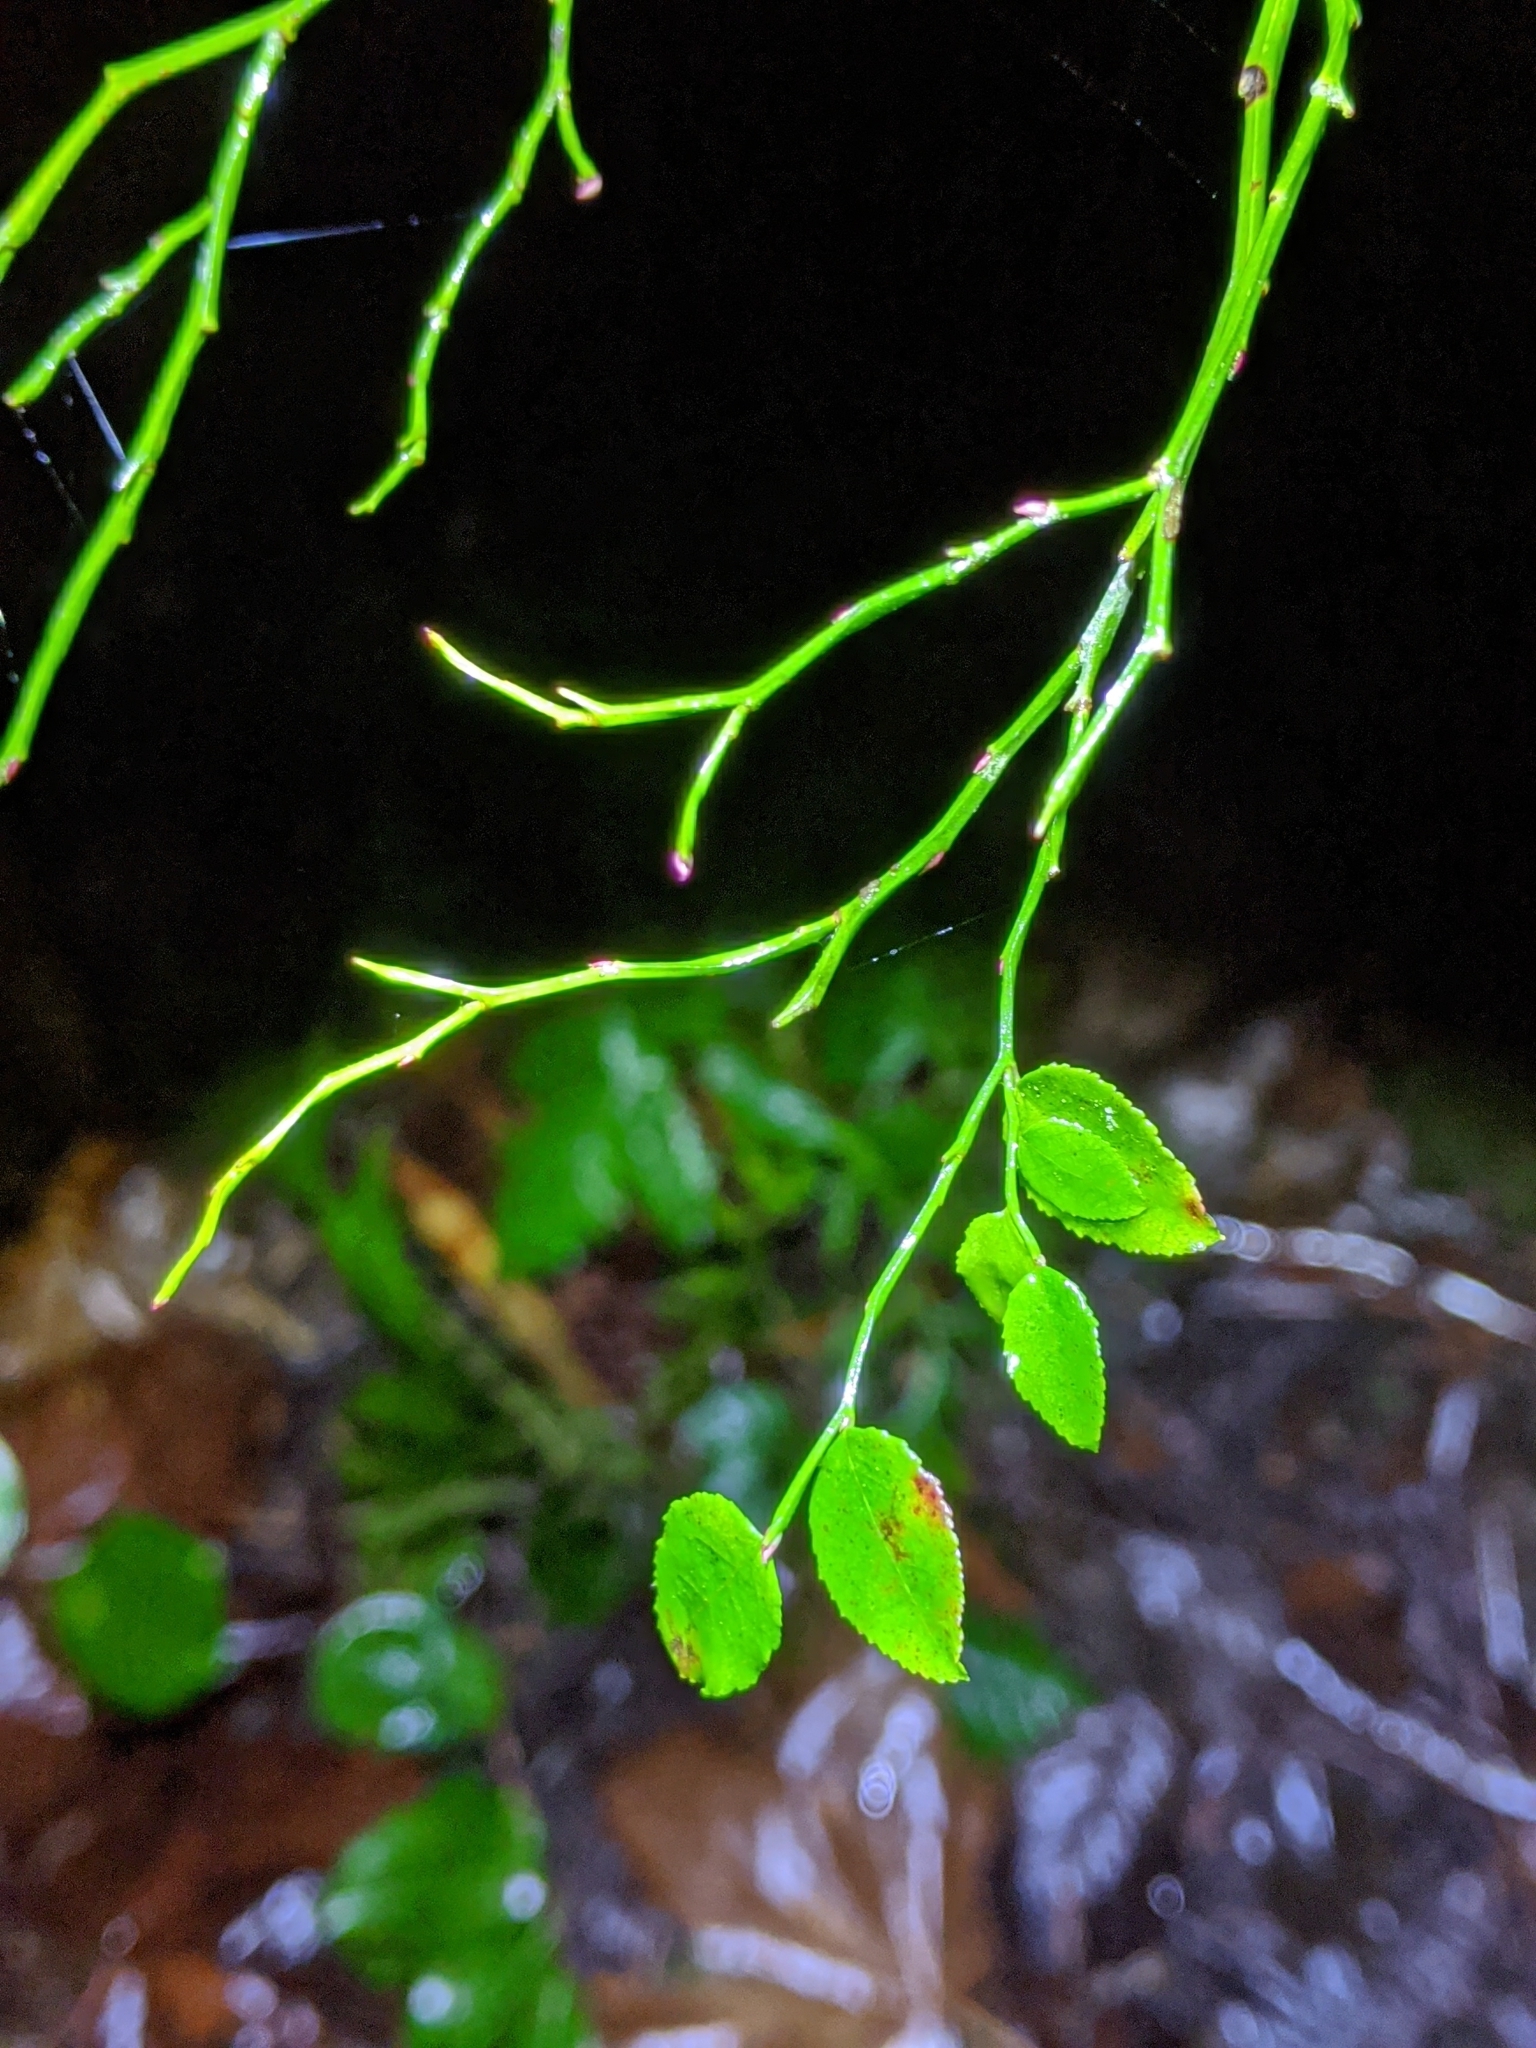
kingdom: Plantae
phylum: Tracheophyta
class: Magnoliopsida
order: Ericales
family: Ericaceae
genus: Vaccinium
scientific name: Vaccinium parvifolium
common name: Red-huckleberry
